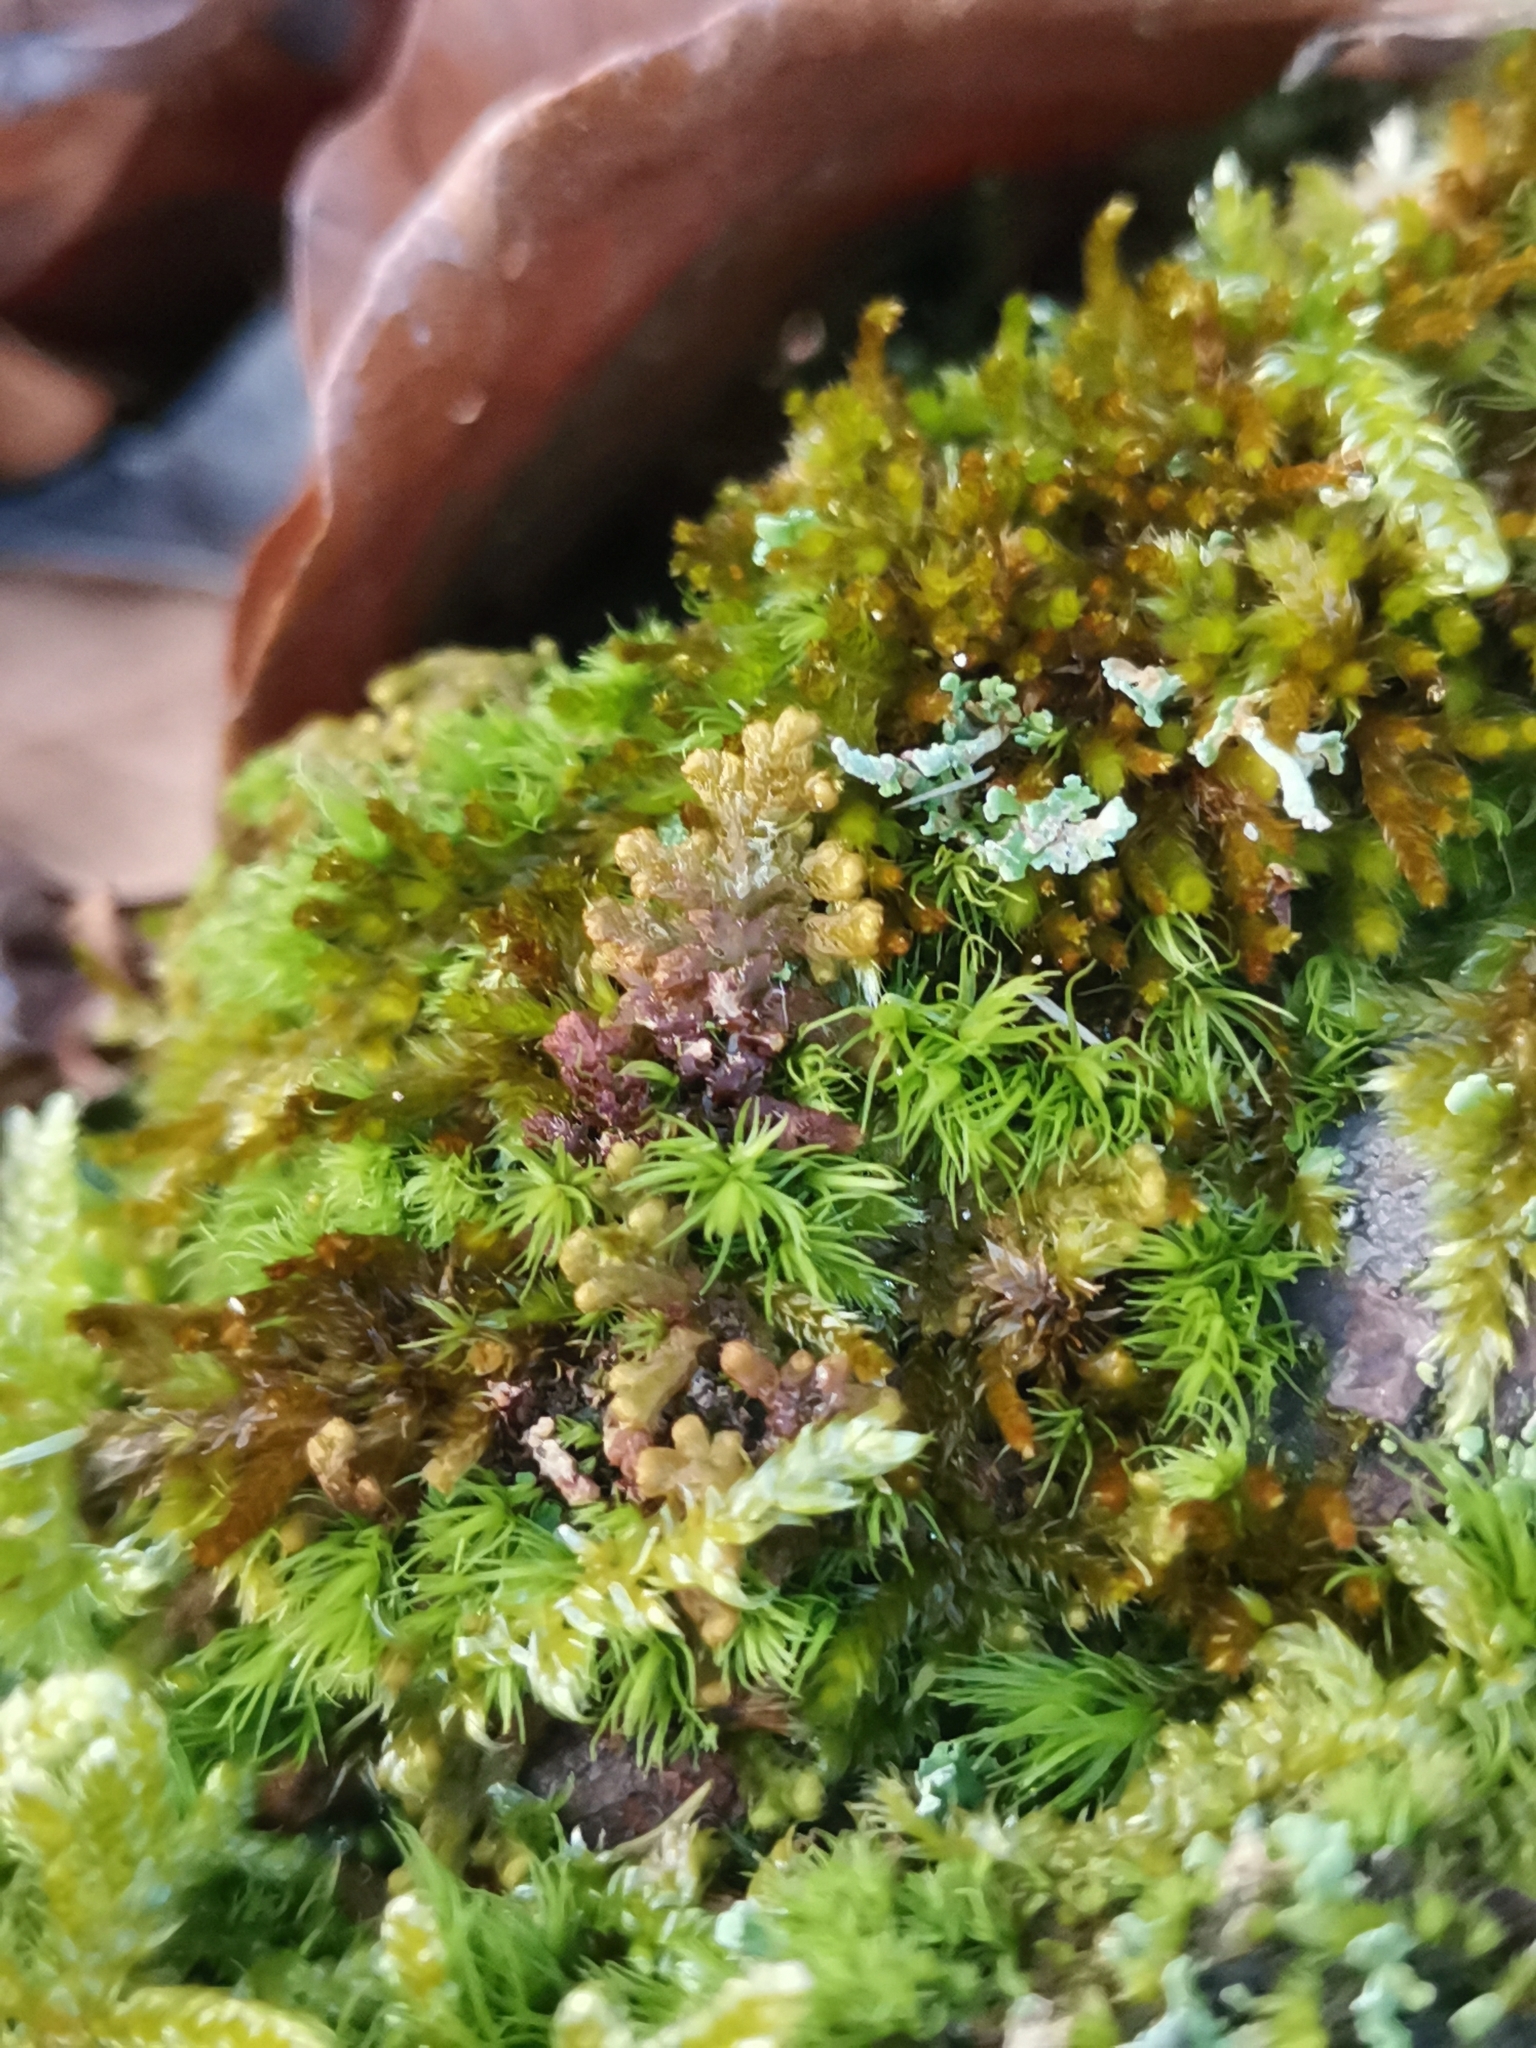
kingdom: Plantae
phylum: Marchantiophyta
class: Jungermanniopsida
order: Ptilidiales
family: Ptilidiaceae
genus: Ptilidium
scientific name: Ptilidium pulcherrimum
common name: Tree fringewort
